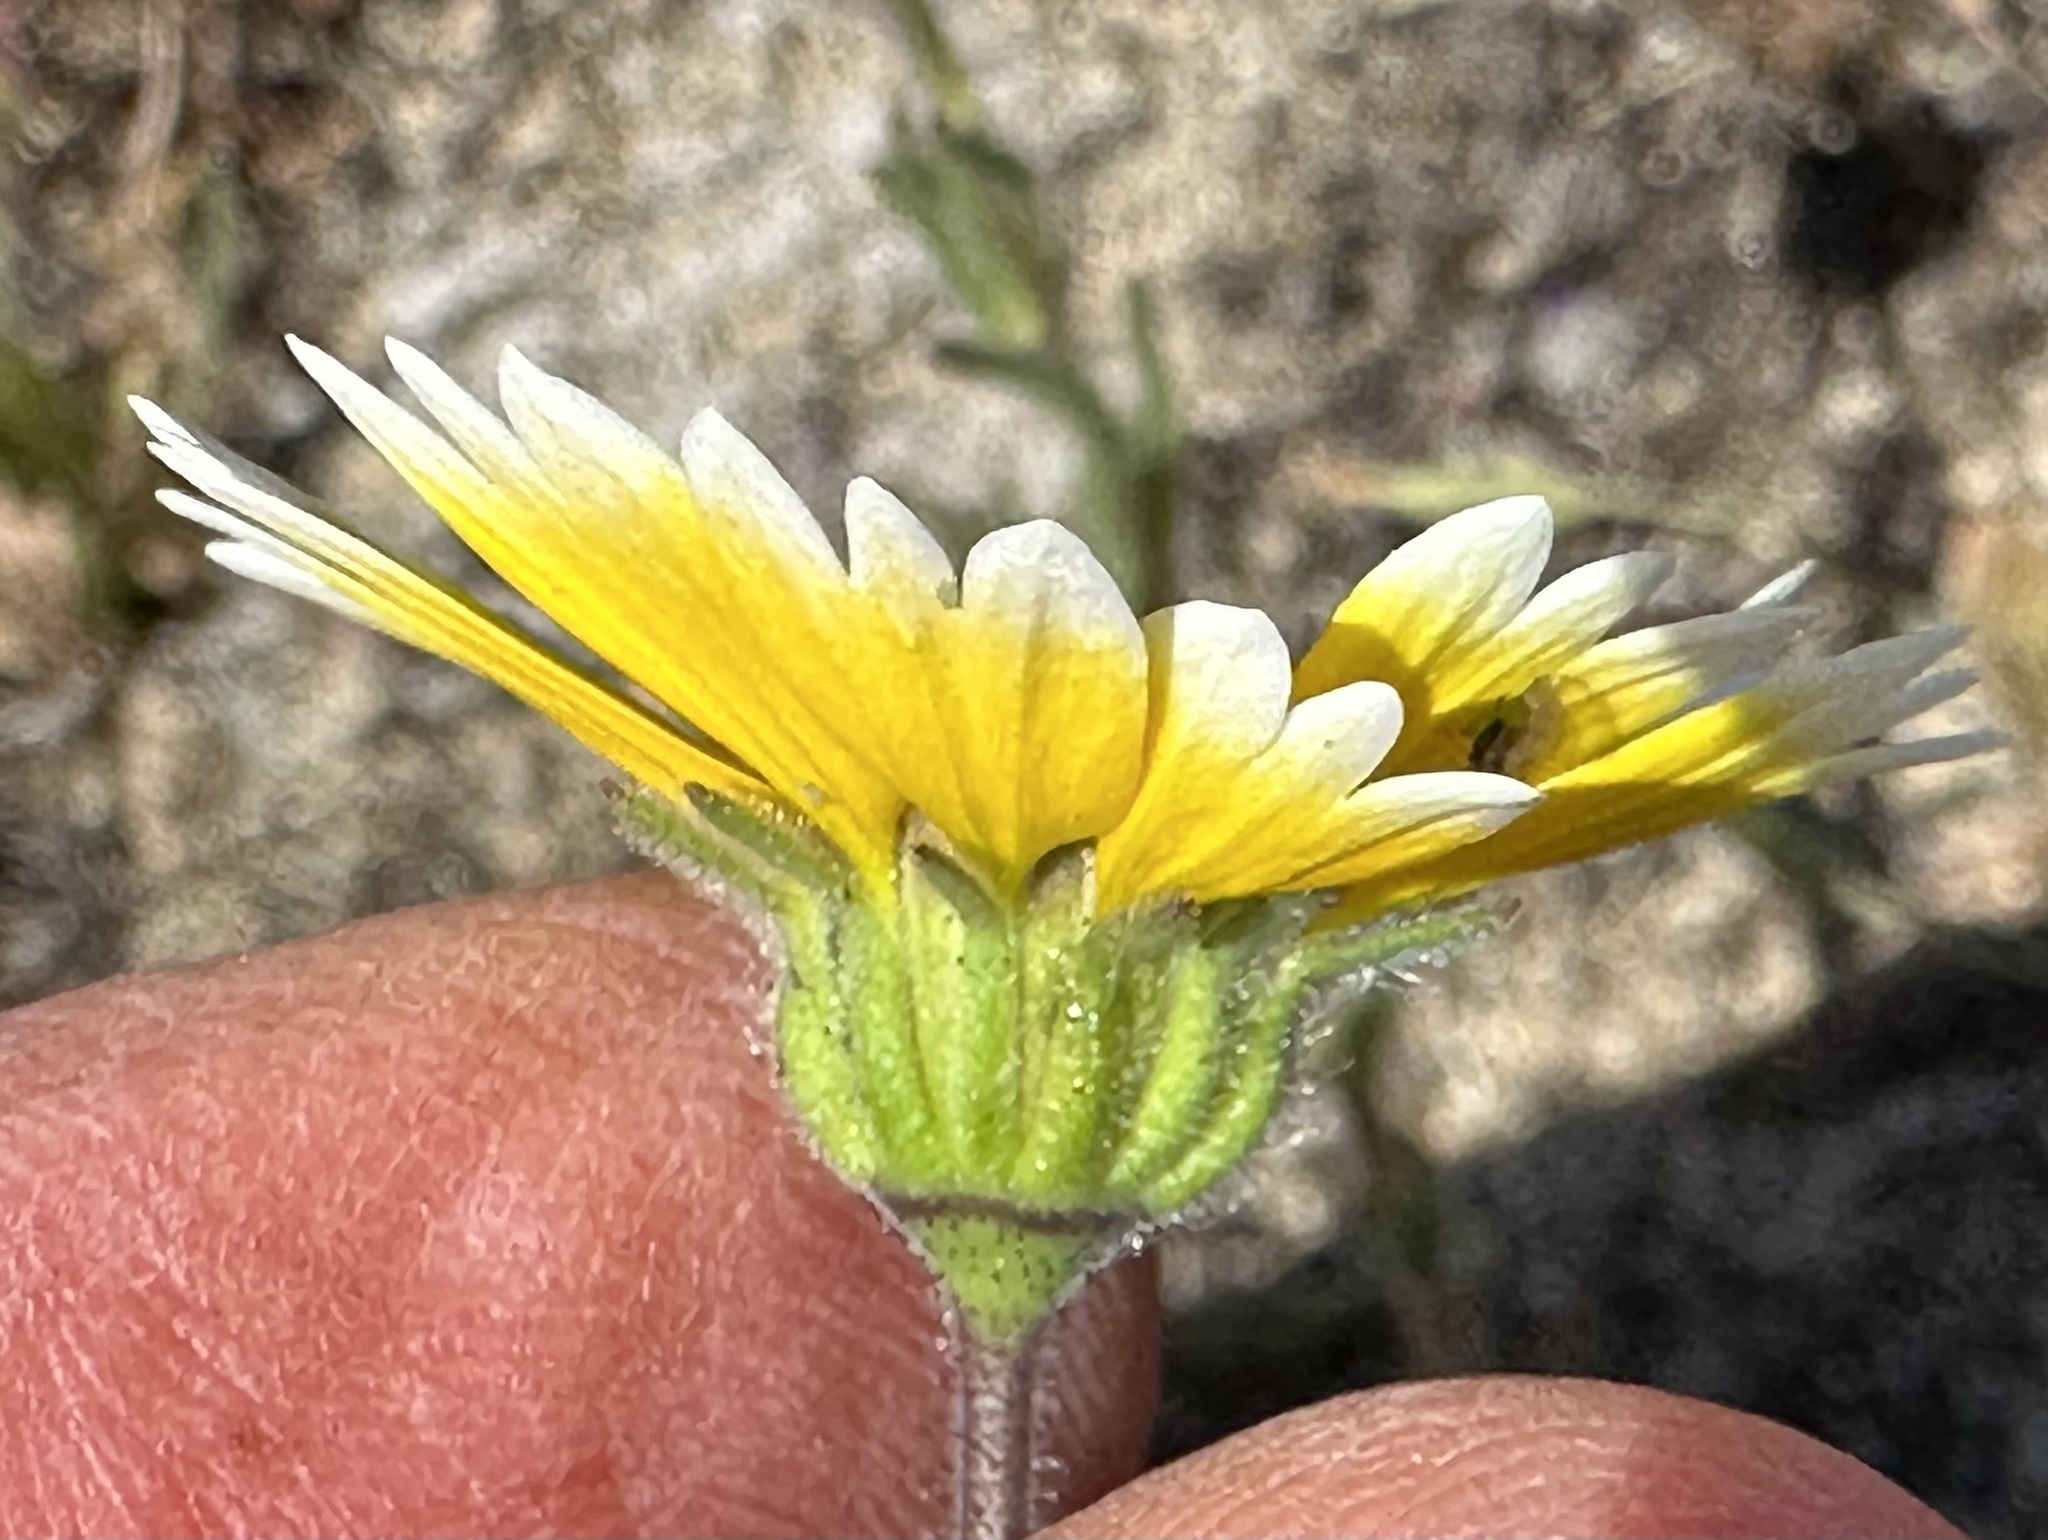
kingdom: Plantae
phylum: Tracheophyta
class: Magnoliopsida
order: Asterales
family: Asteraceae
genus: Layia
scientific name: Layia platyglossa
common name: Tidy-tips
